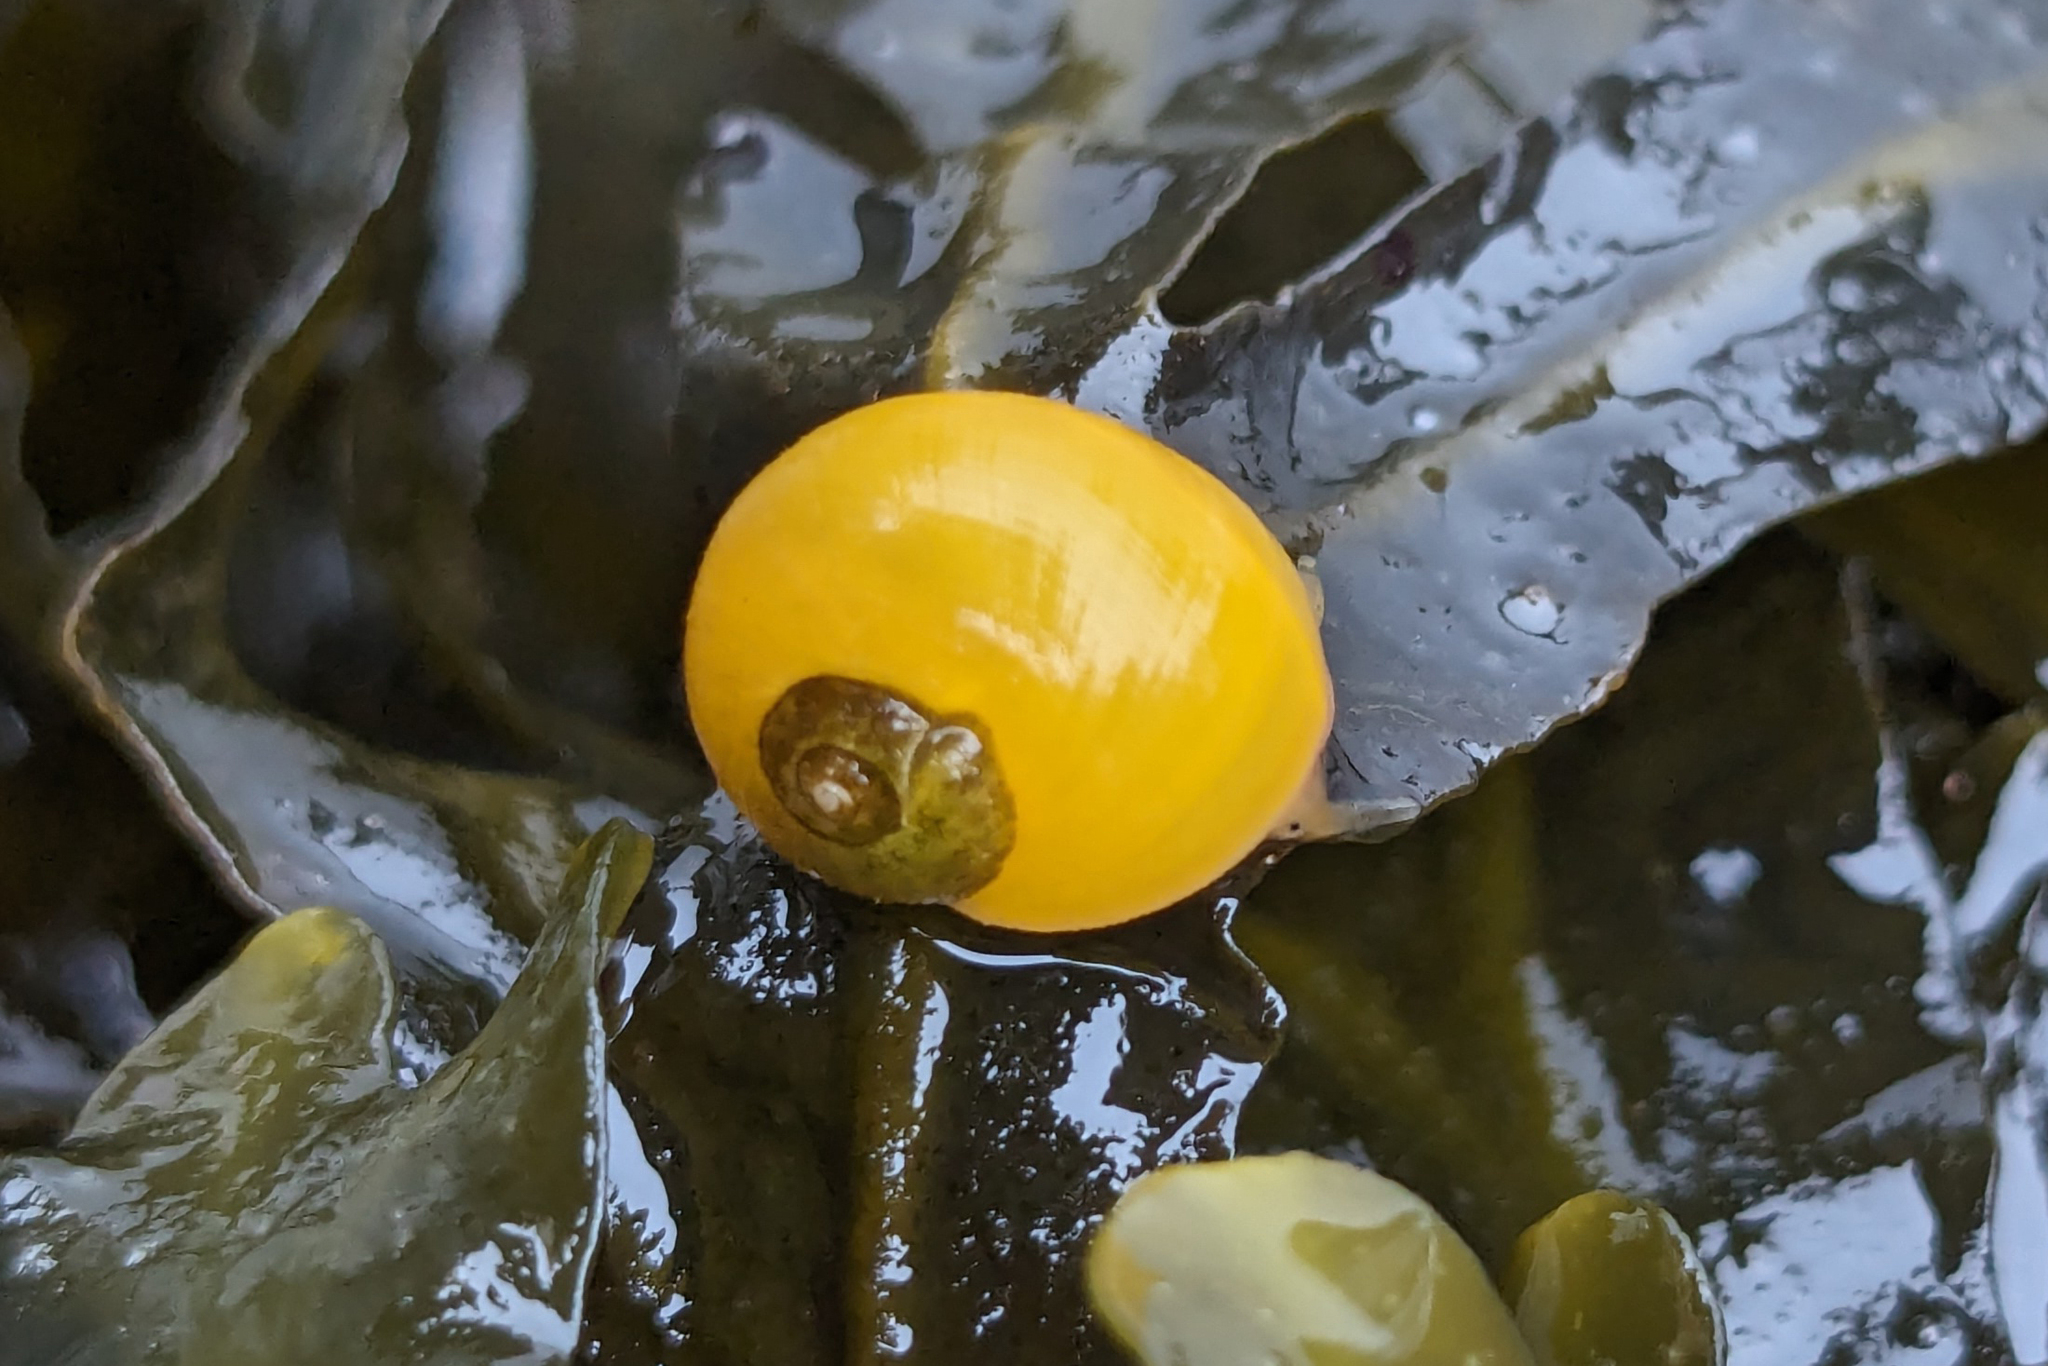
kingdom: Animalia
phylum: Mollusca
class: Gastropoda
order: Littorinimorpha
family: Littorinidae
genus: Littorina
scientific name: Littorina obtusata
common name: Flat periwinkle
